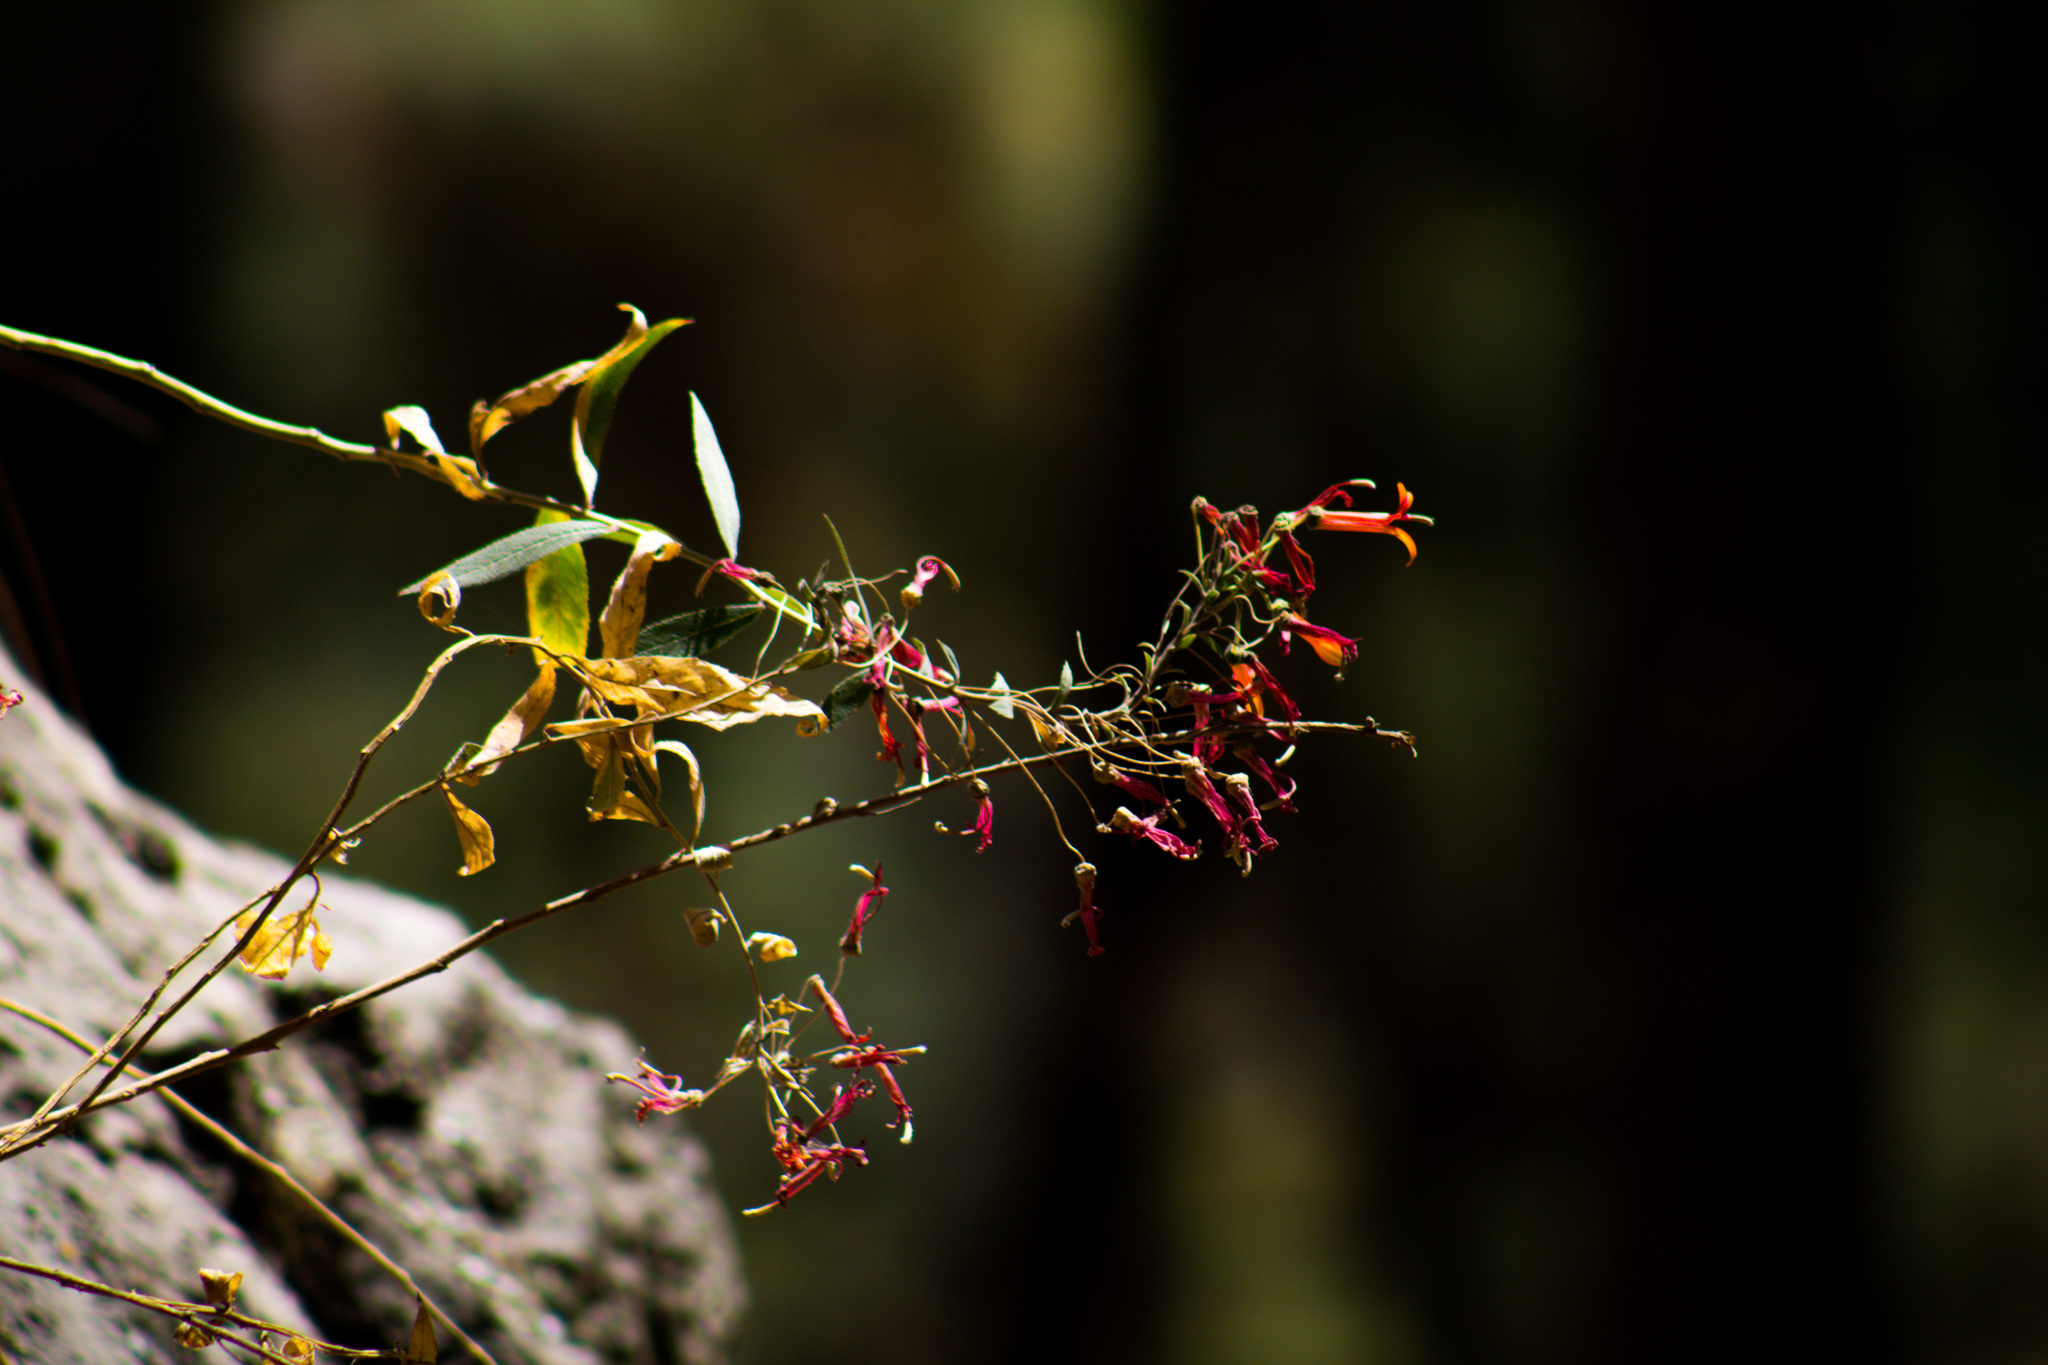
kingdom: Plantae
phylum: Tracheophyta
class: Magnoliopsida
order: Asterales
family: Campanulaceae
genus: Lobelia
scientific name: Lobelia laxiflora
